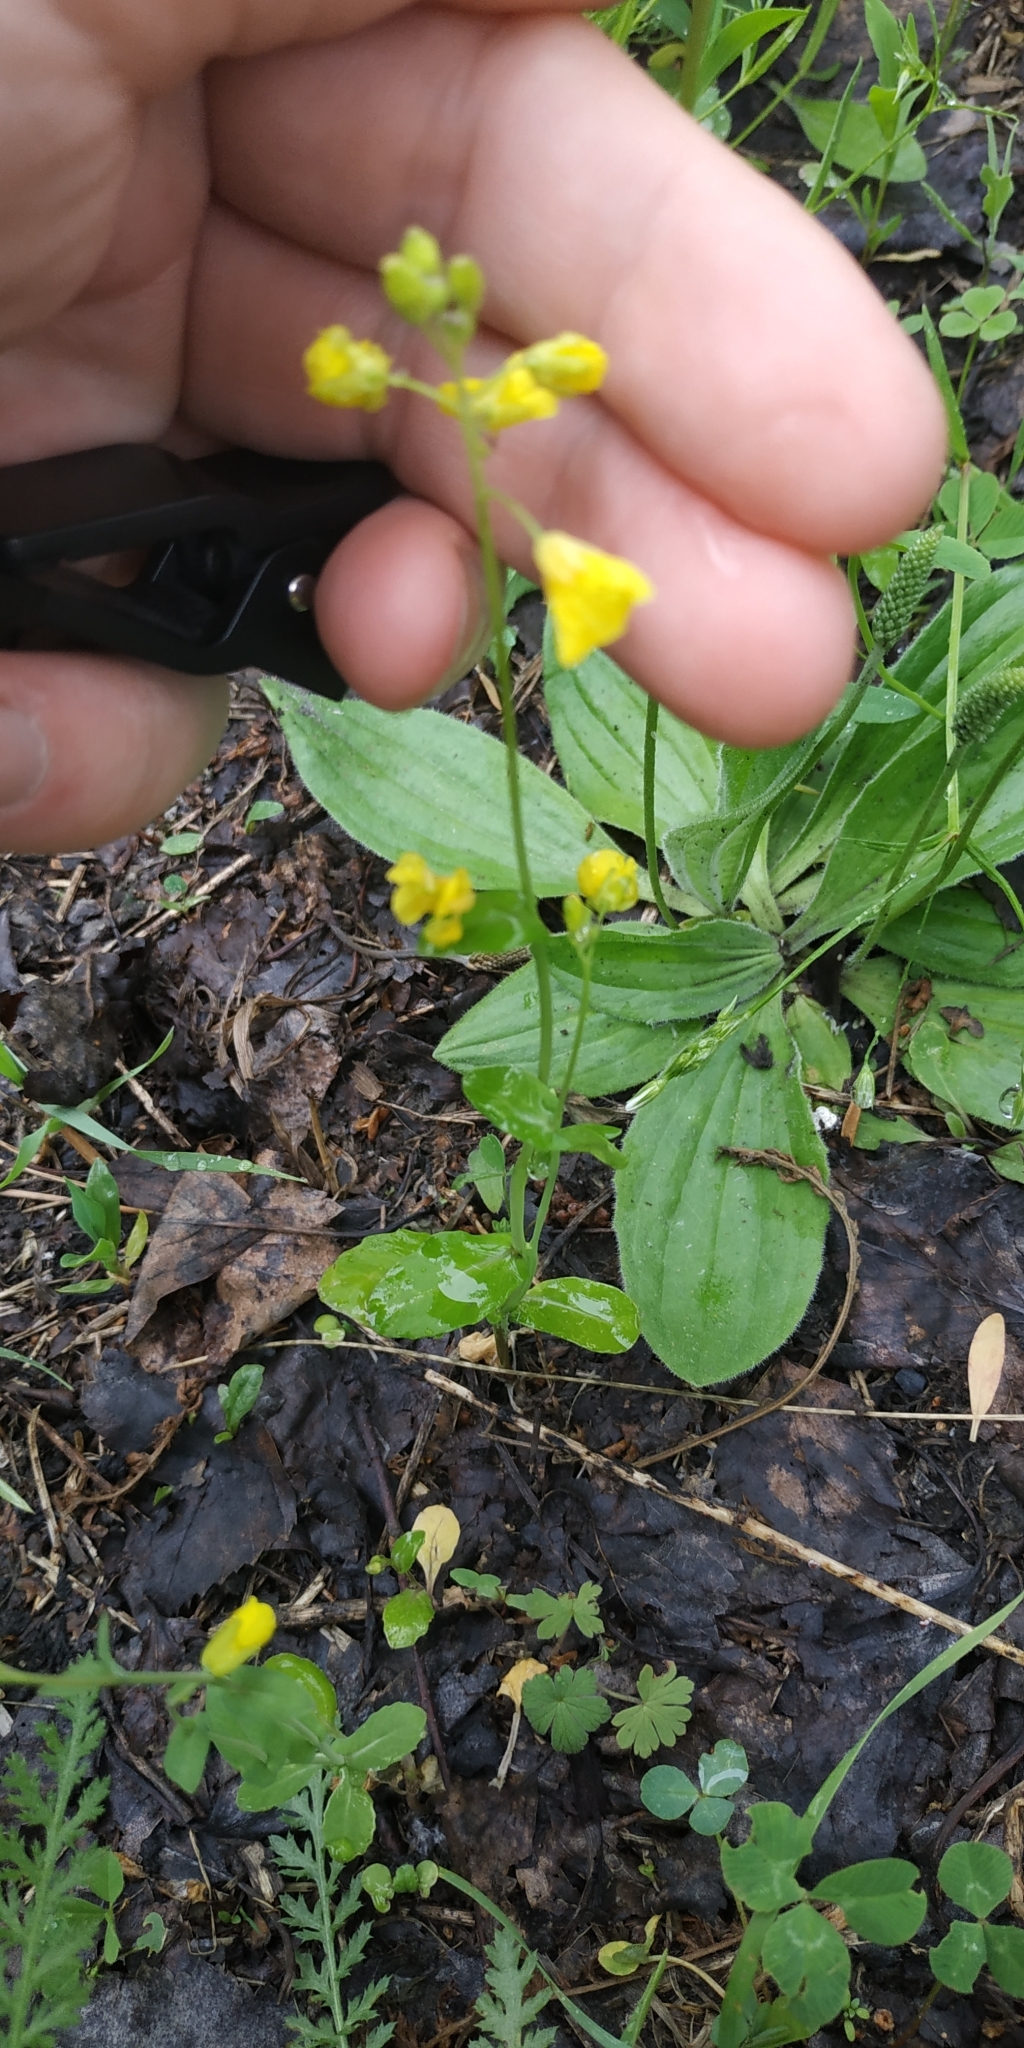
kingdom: Plantae
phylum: Tracheophyta
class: Magnoliopsida
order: Brassicales
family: Brassicaceae
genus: Brassica
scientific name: Brassica rapa
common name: Field mustard
